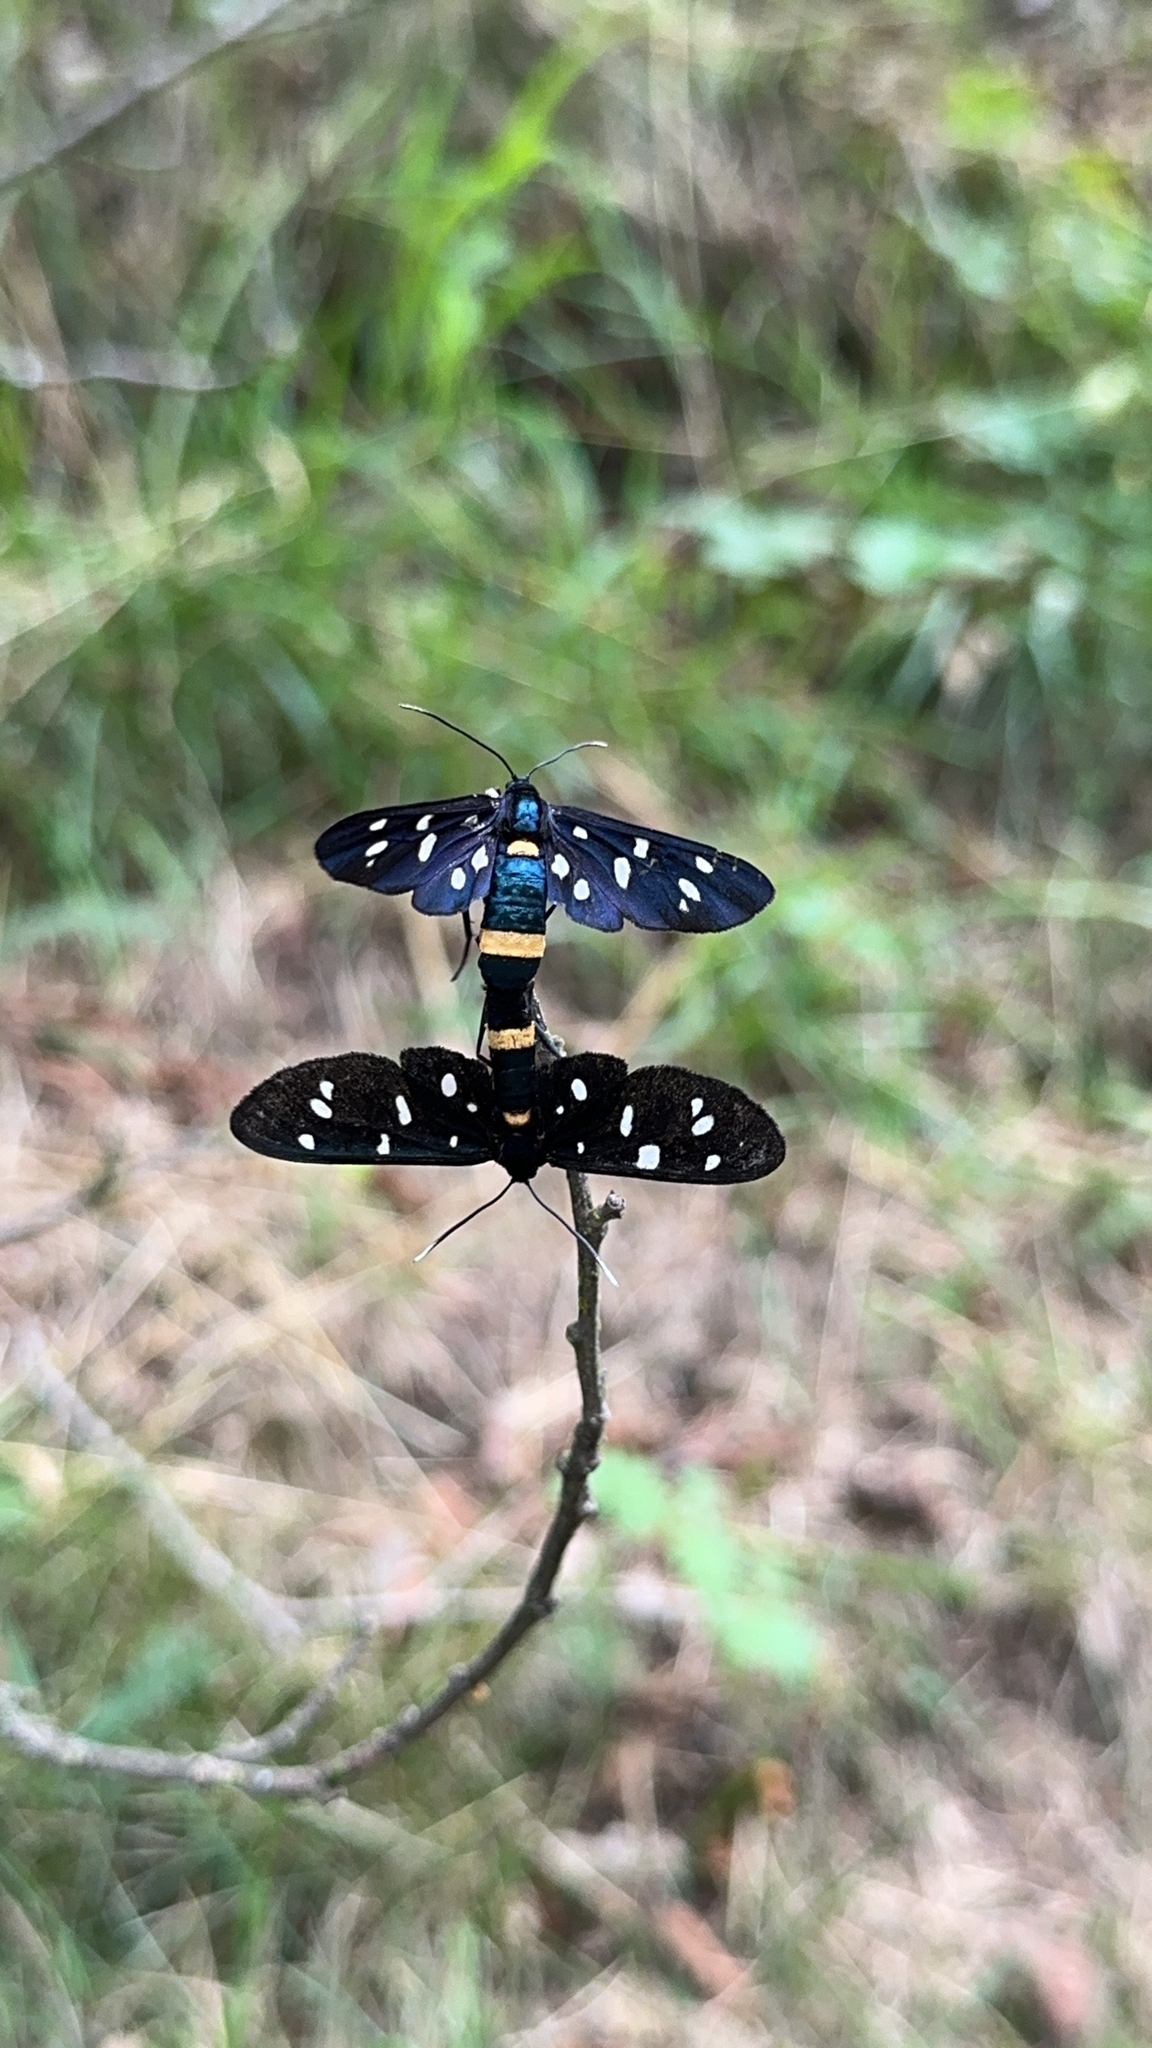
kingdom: Animalia
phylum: Arthropoda
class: Insecta
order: Lepidoptera
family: Erebidae
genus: Amata
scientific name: Amata phegea
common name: Nine-spotted
